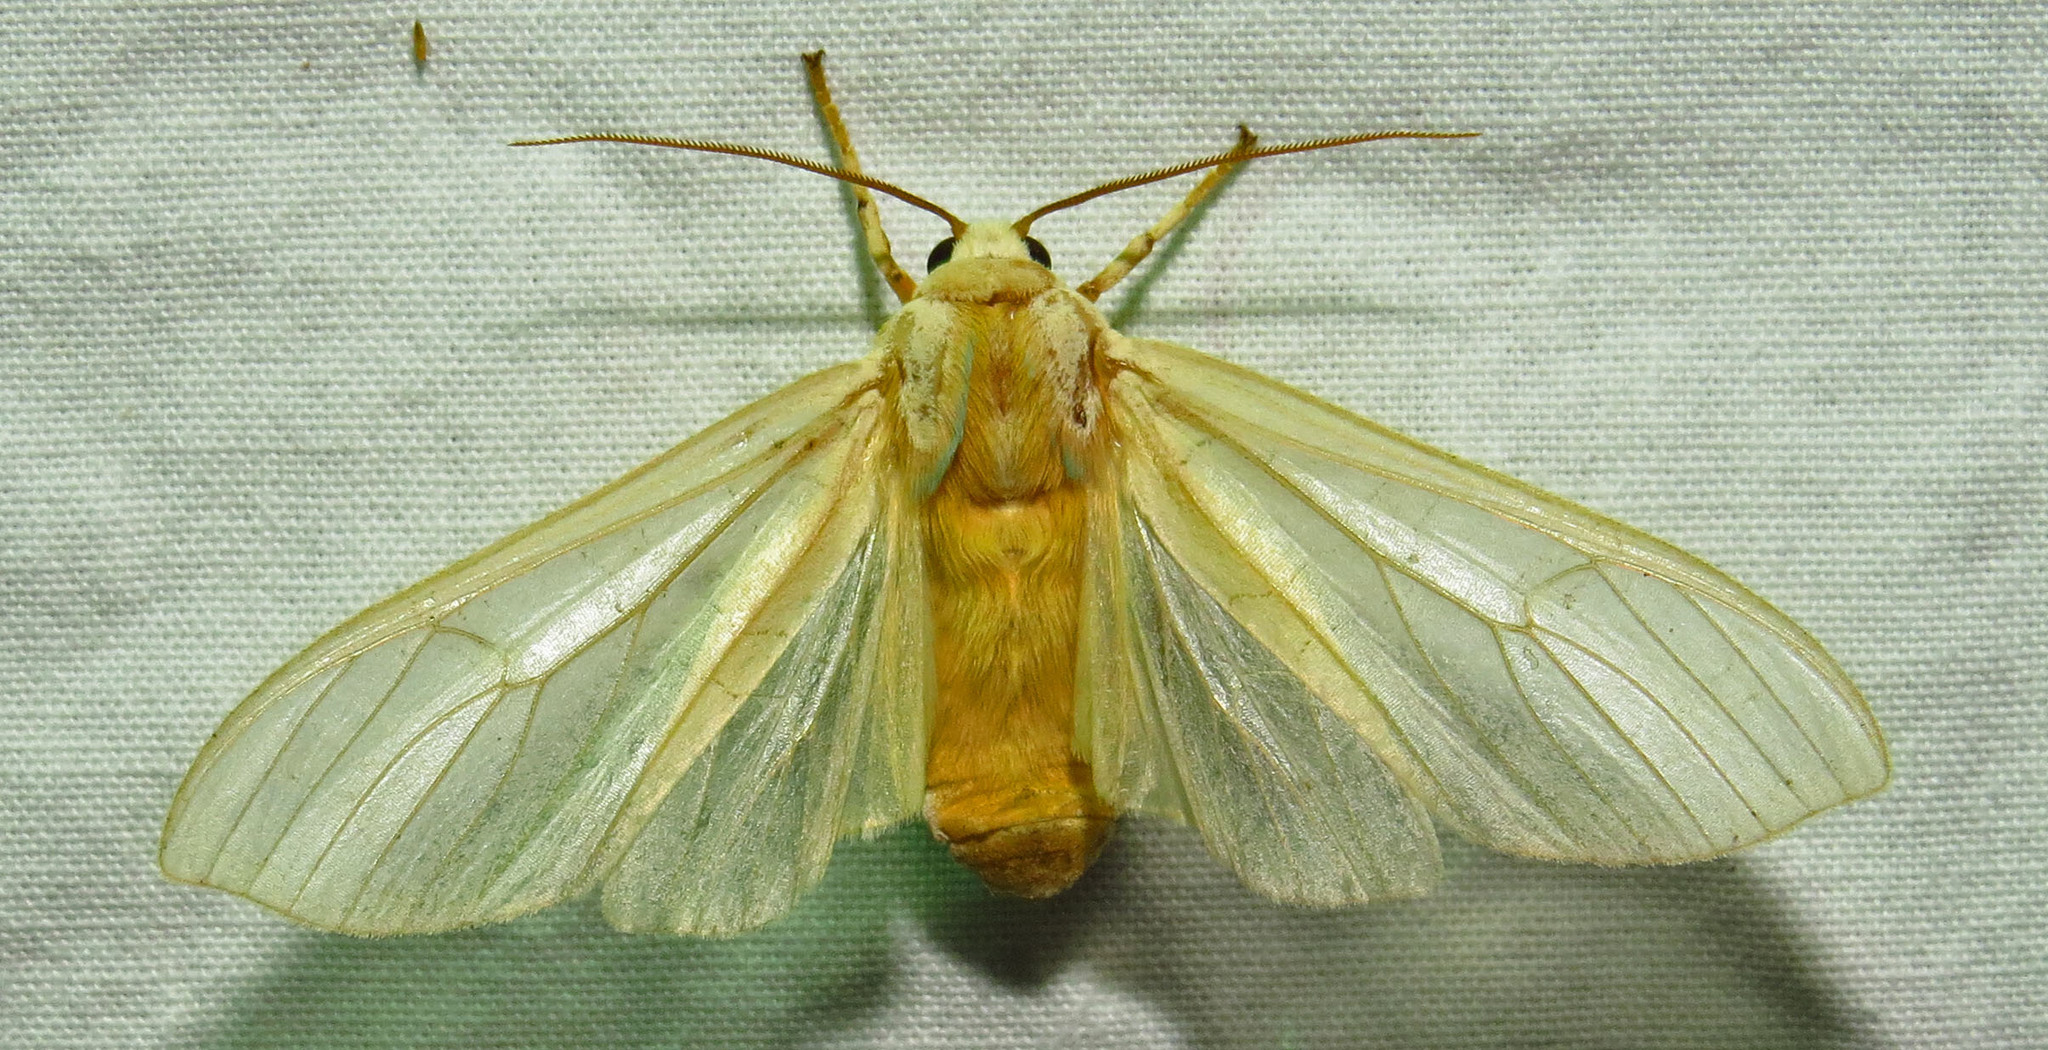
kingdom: Animalia
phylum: Arthropoda
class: Insecta
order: Lepidoptera
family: Erebidae
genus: Halysidota
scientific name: Halysidota
